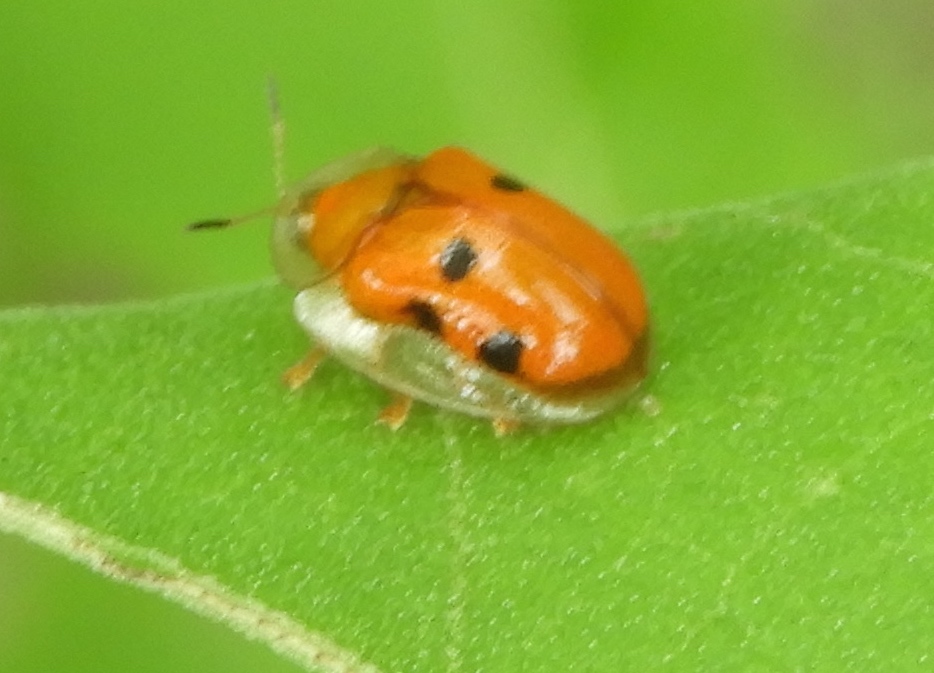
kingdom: Animalia
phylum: Arthropoda
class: Insecta
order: Coleoptera
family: Chrysomelidae
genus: Charidotella
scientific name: Charidotella sexpunctata
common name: Golden tortoise beetle
